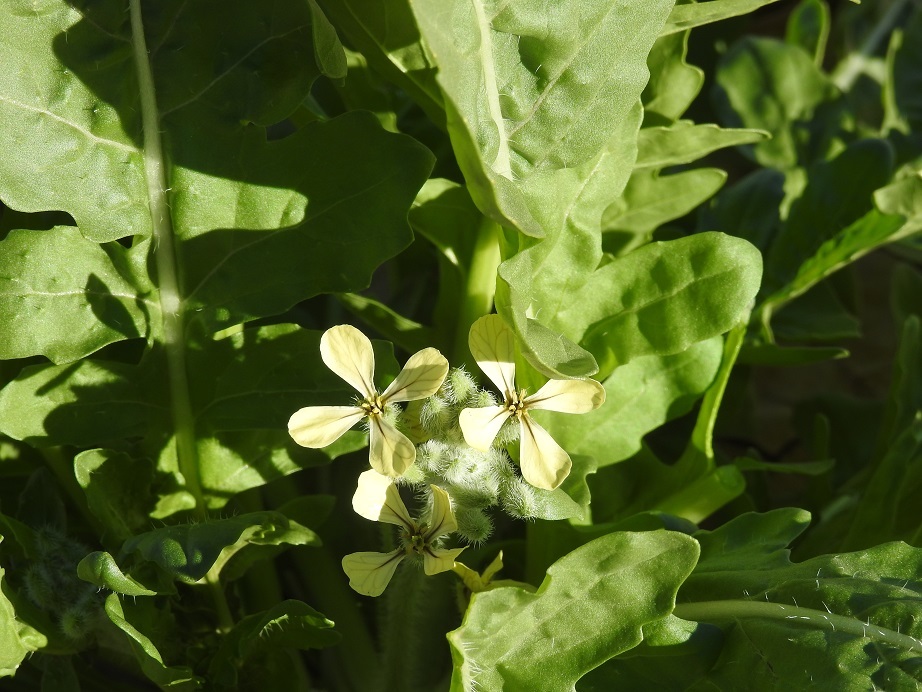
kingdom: Plantae
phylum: Tracheophyta
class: Magnoliopsida
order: Brassicales
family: Brassicaceae
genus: Eruca
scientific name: Eruca vesicaria
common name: Garden rocket
